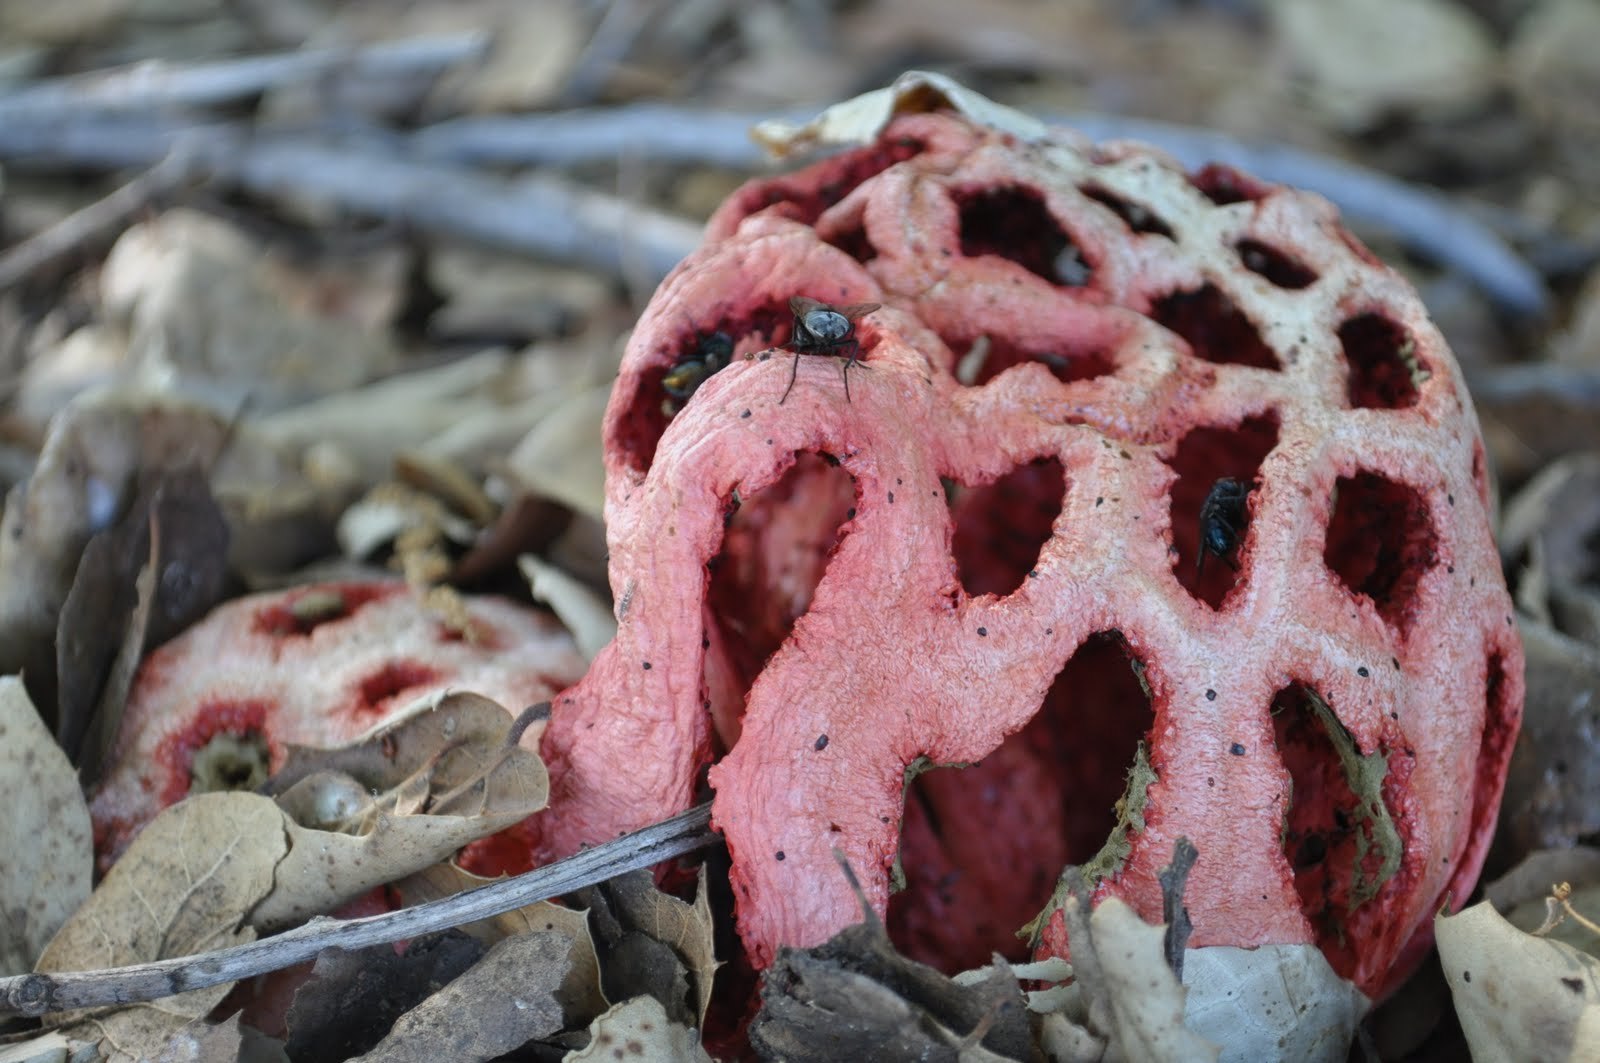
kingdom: Fungi
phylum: Basidiomycota
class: Agaricomycetes
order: Phallales
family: Phallaceae
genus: Clathrus
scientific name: Clathrus ruber
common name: Red cage
